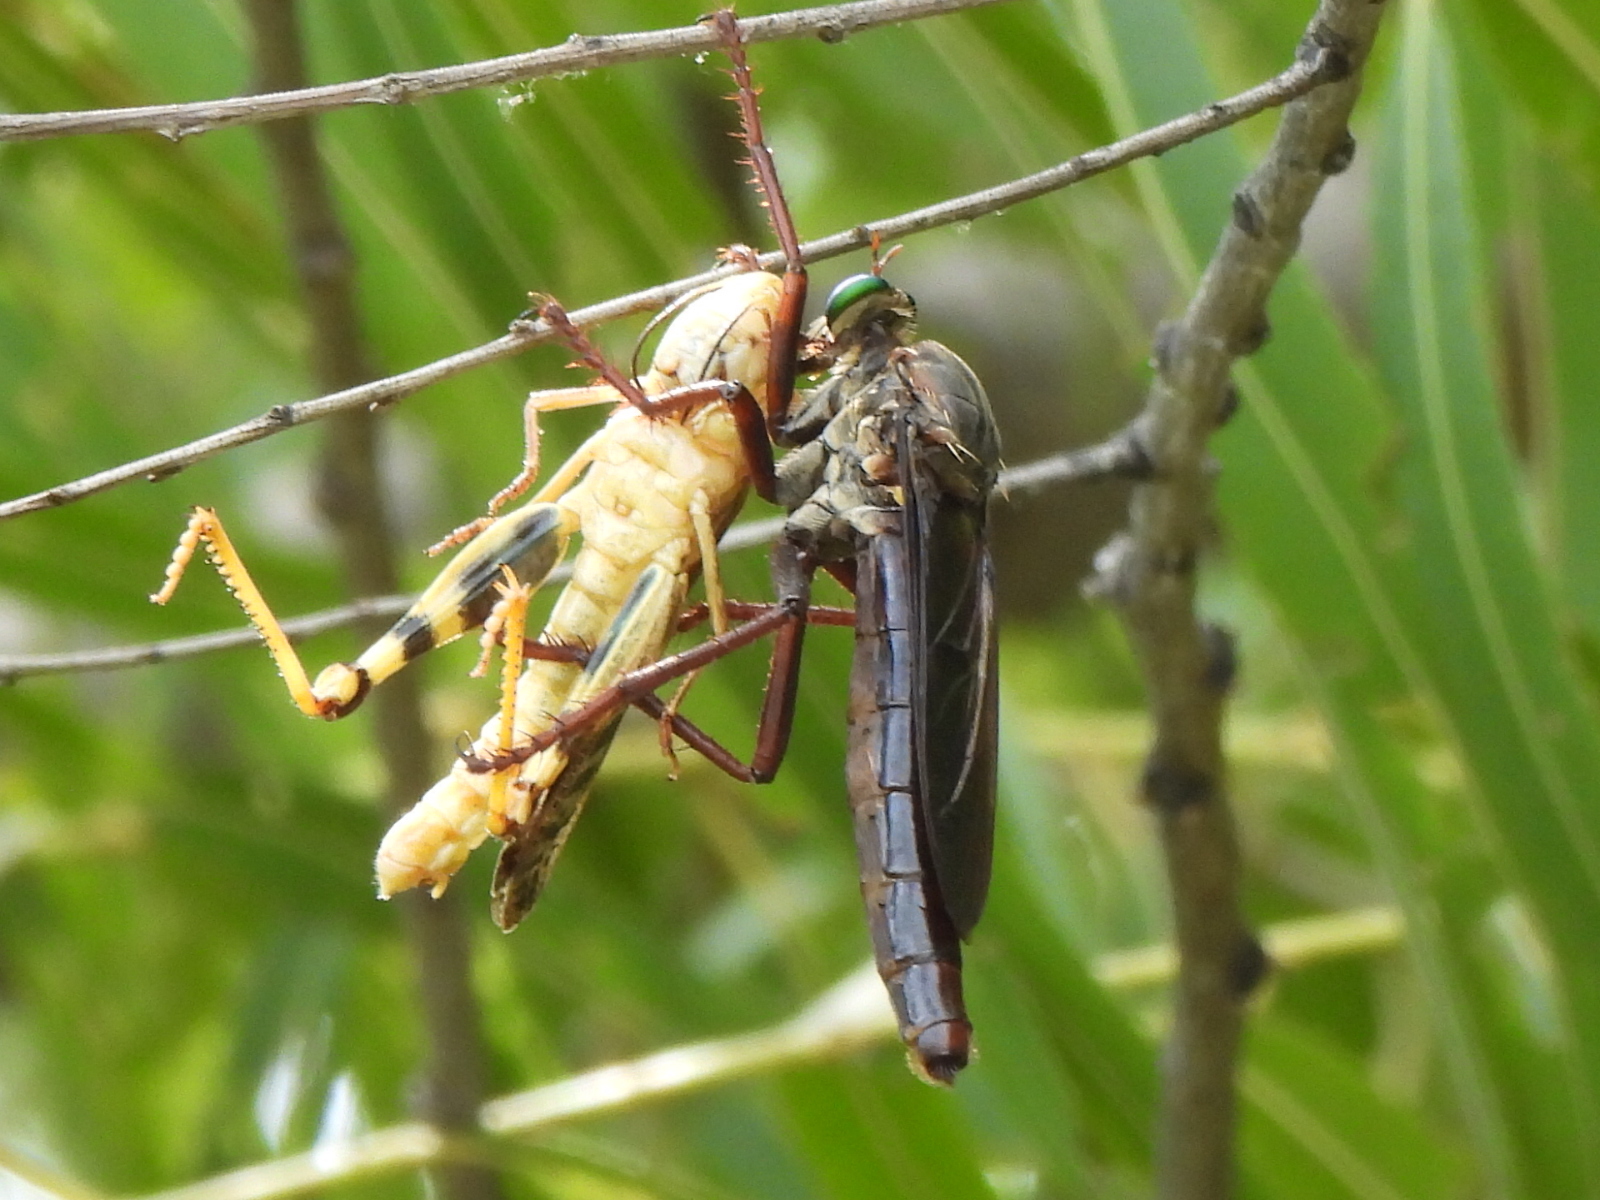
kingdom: Animalia
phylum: Arthropoda
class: Insecta
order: Diptera
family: Asilidae
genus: Microstylum
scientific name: Microstylum morosum
